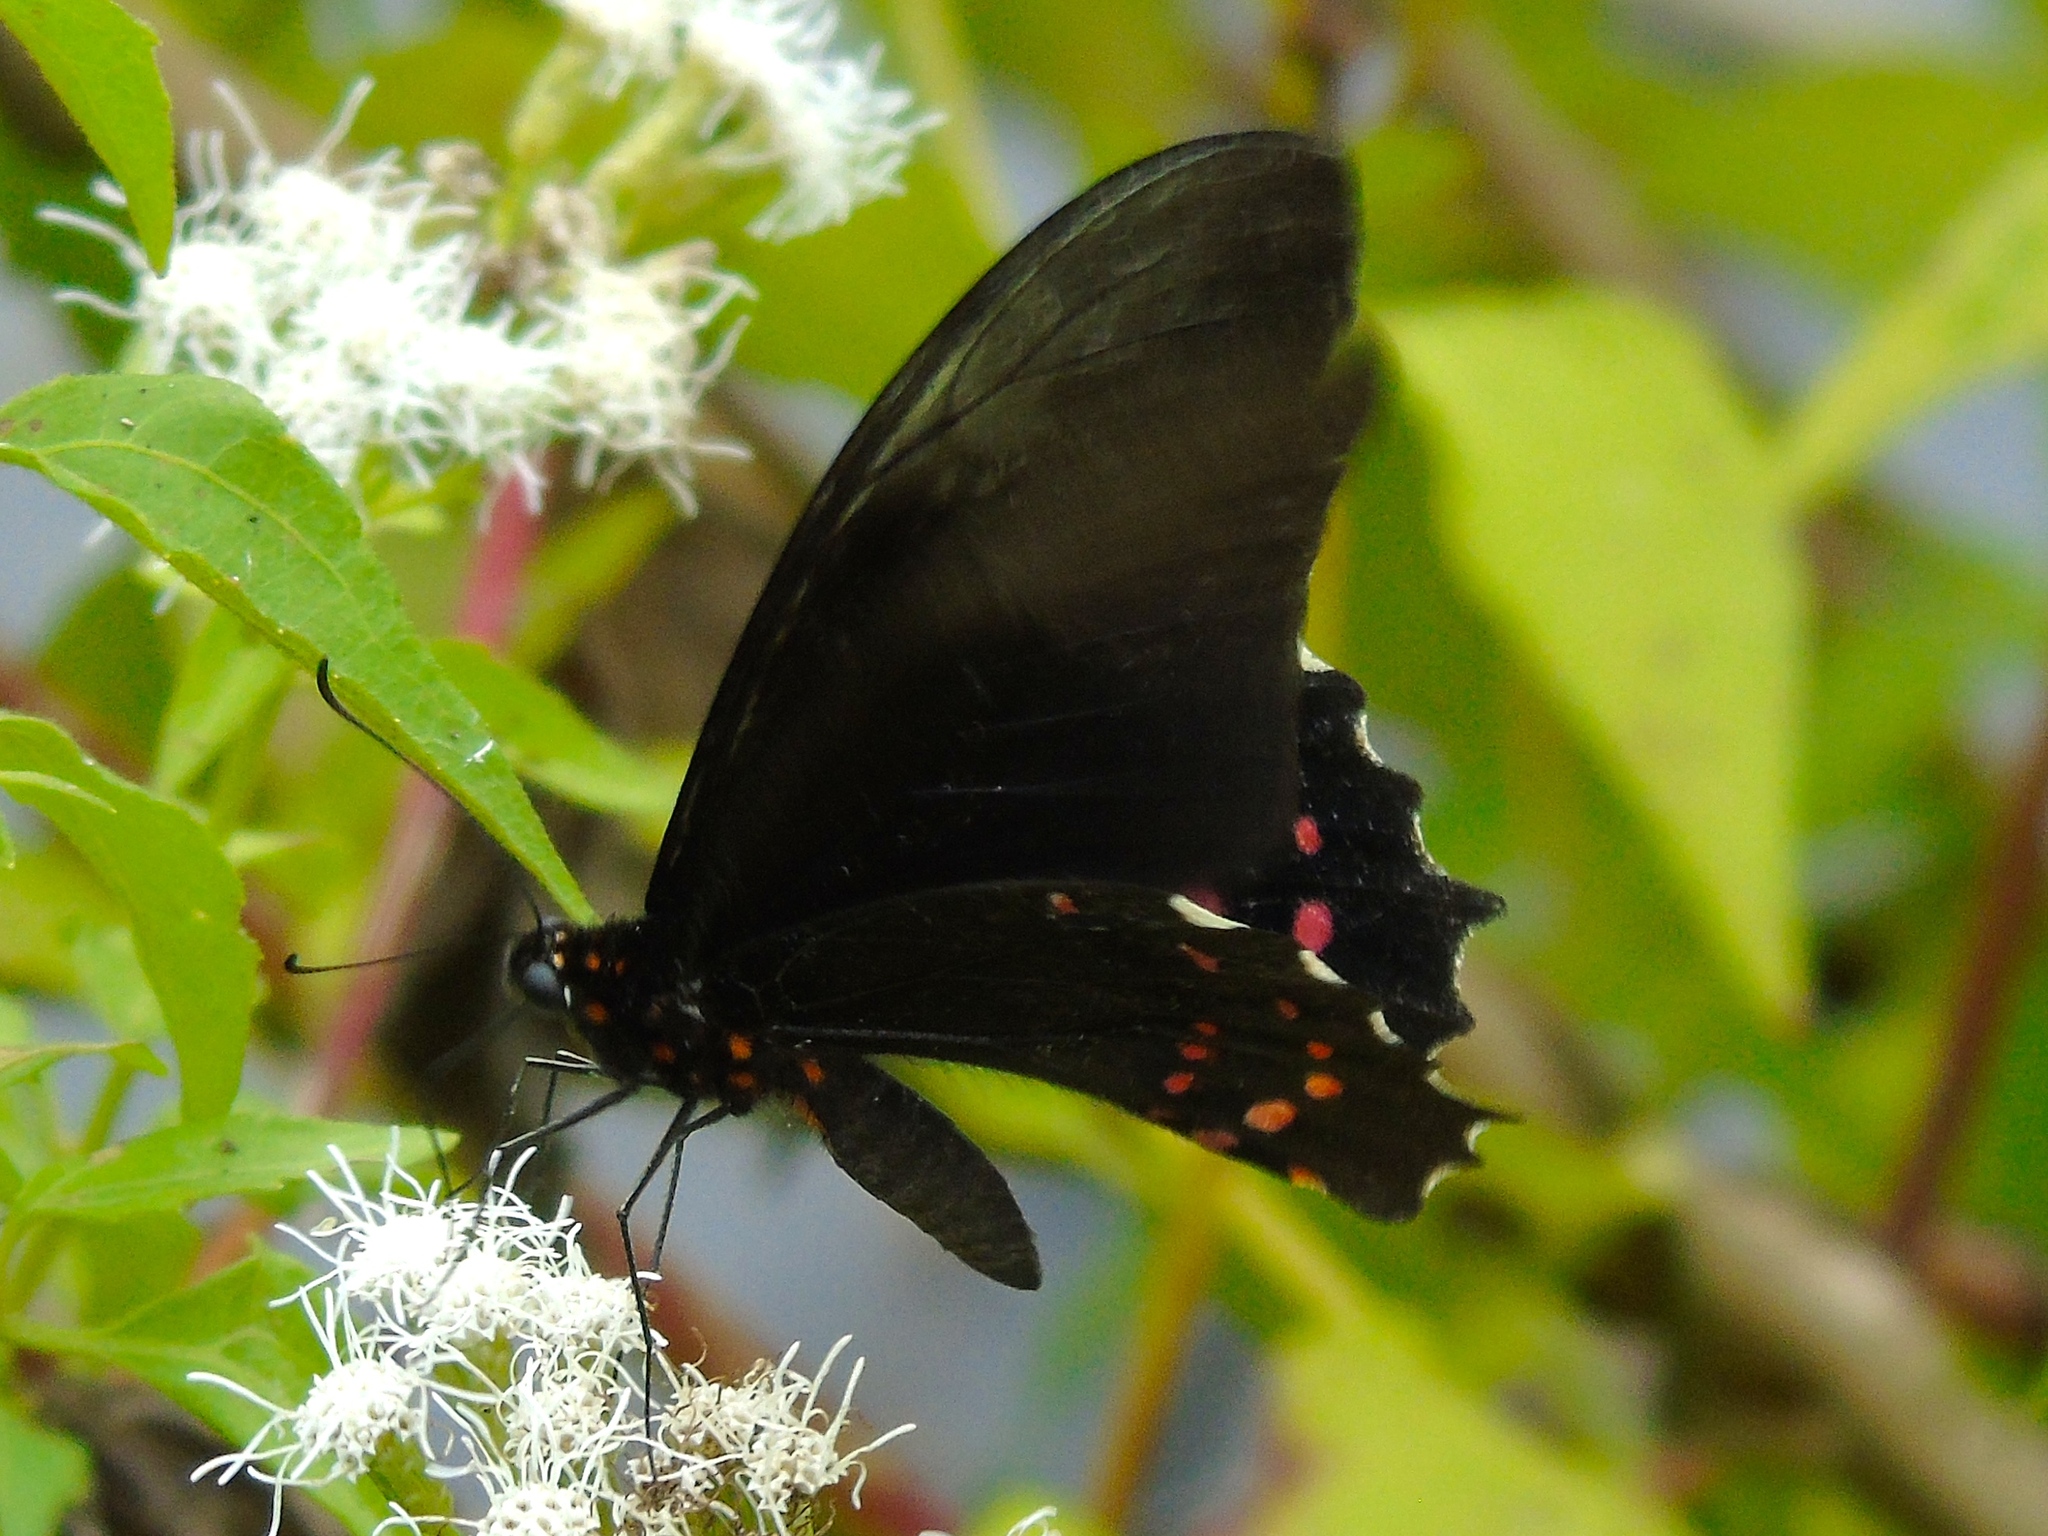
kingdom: Animalia
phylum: Arthropoda
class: Insecta
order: Lepidoptera
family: Papilionidae
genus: Heraclides
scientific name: Heraclides rogeri
